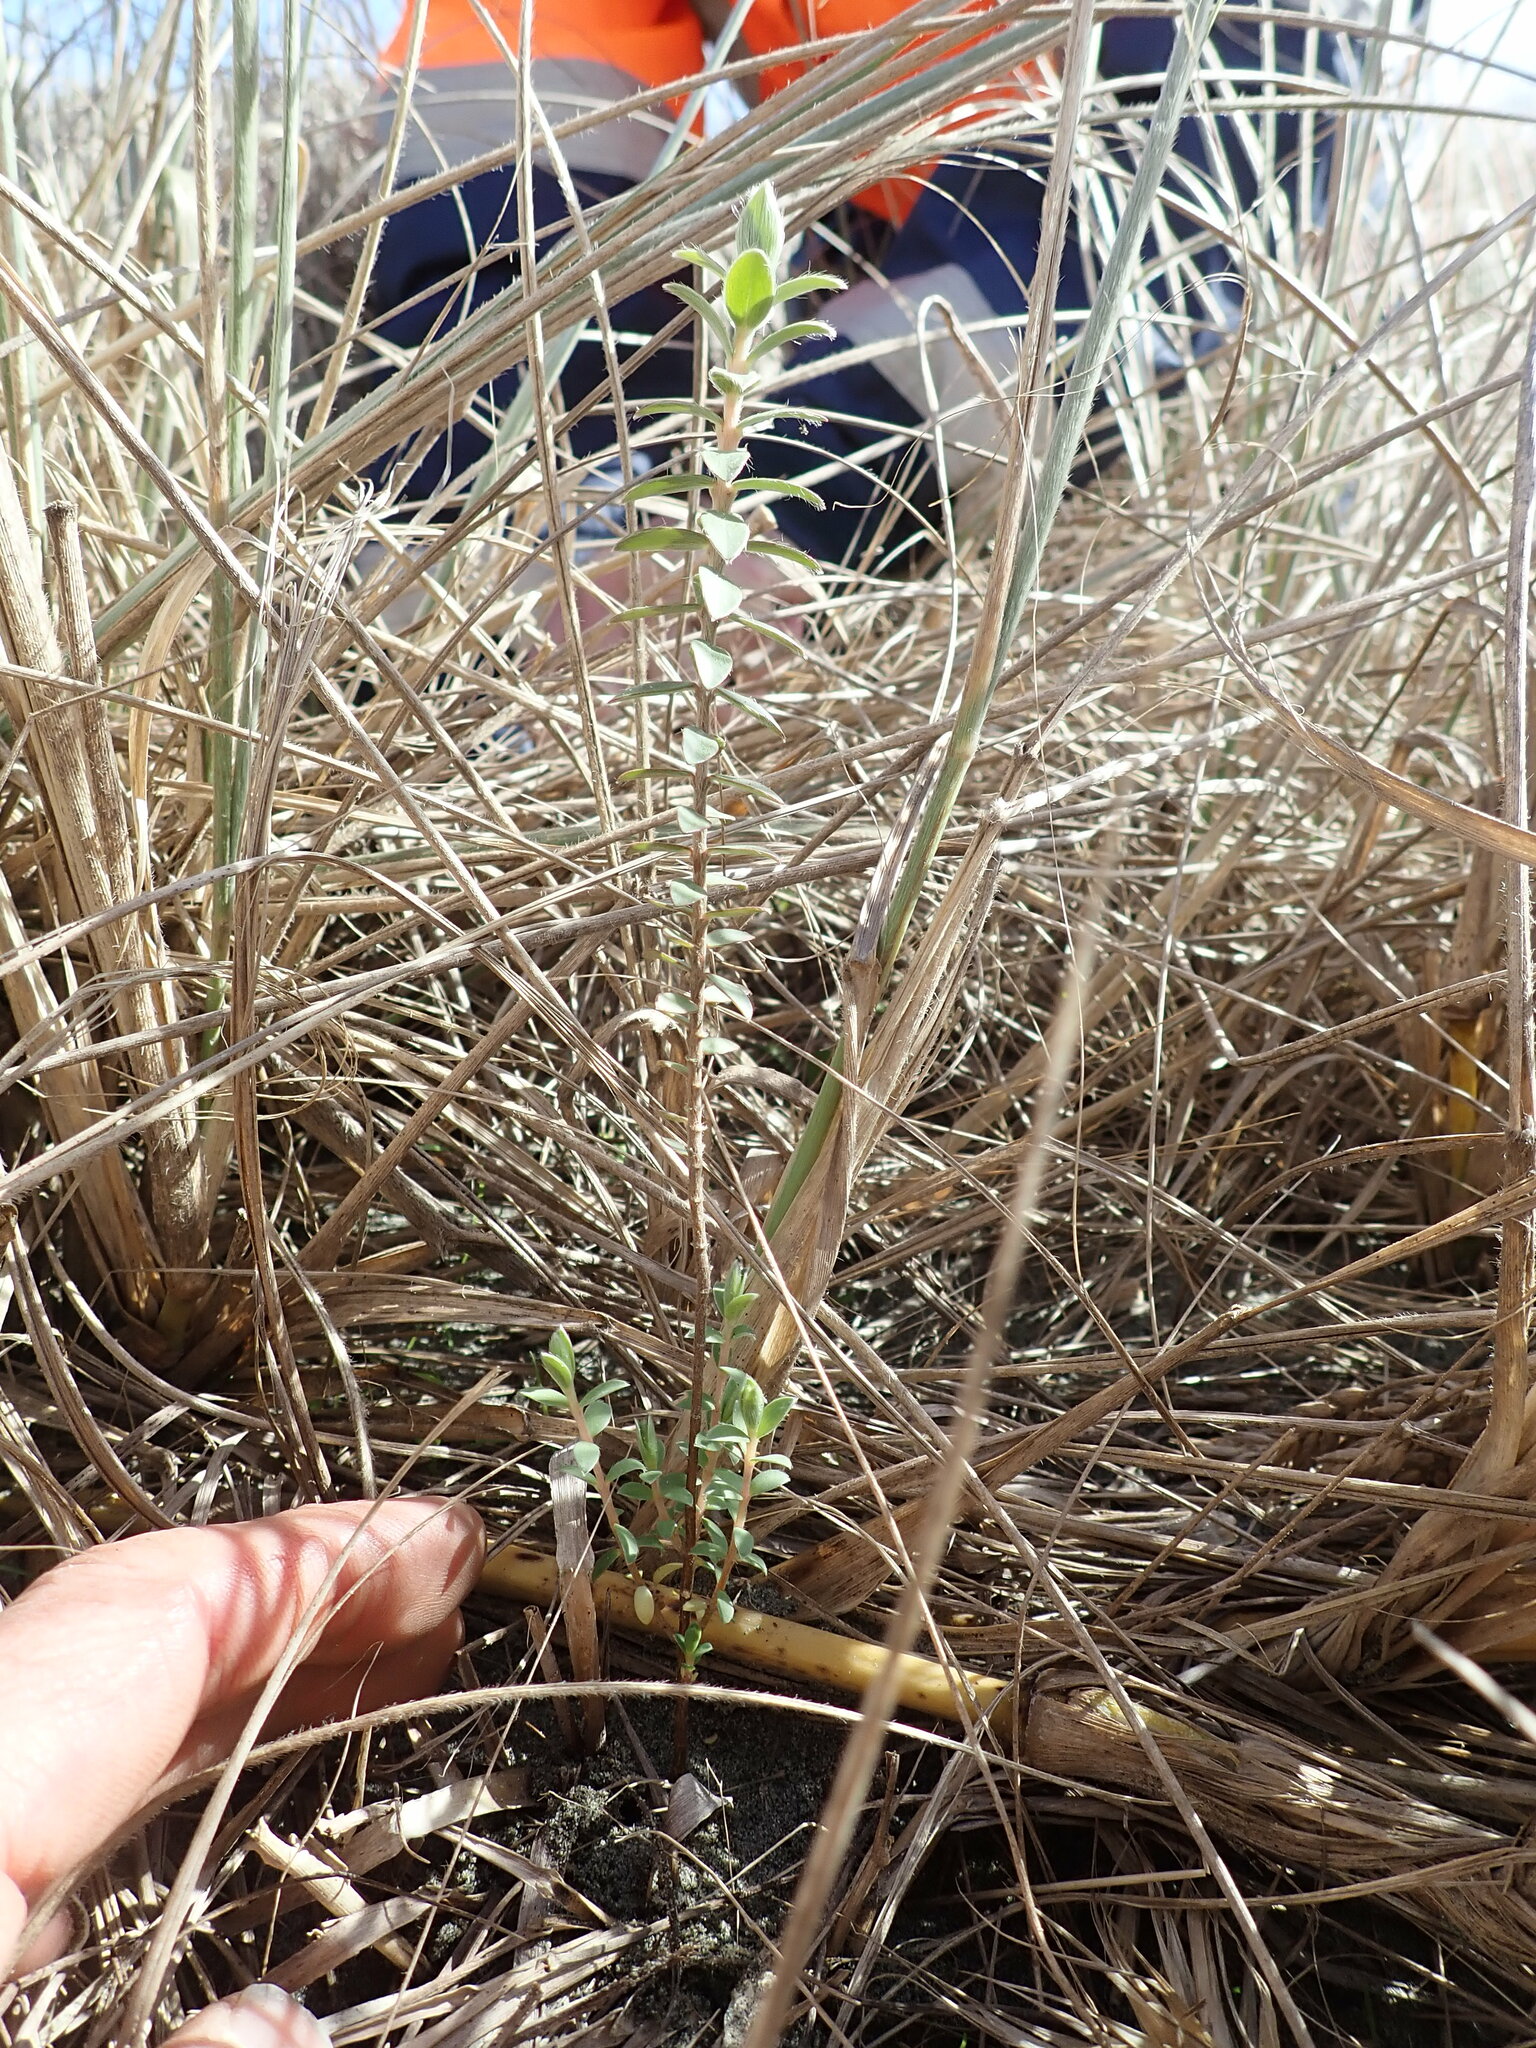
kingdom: Plantae
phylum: Tracheophyta
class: Magnoliopsida
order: Malvales
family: Thymelaeaceae
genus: Pimelea
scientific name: Pimelea villosa
